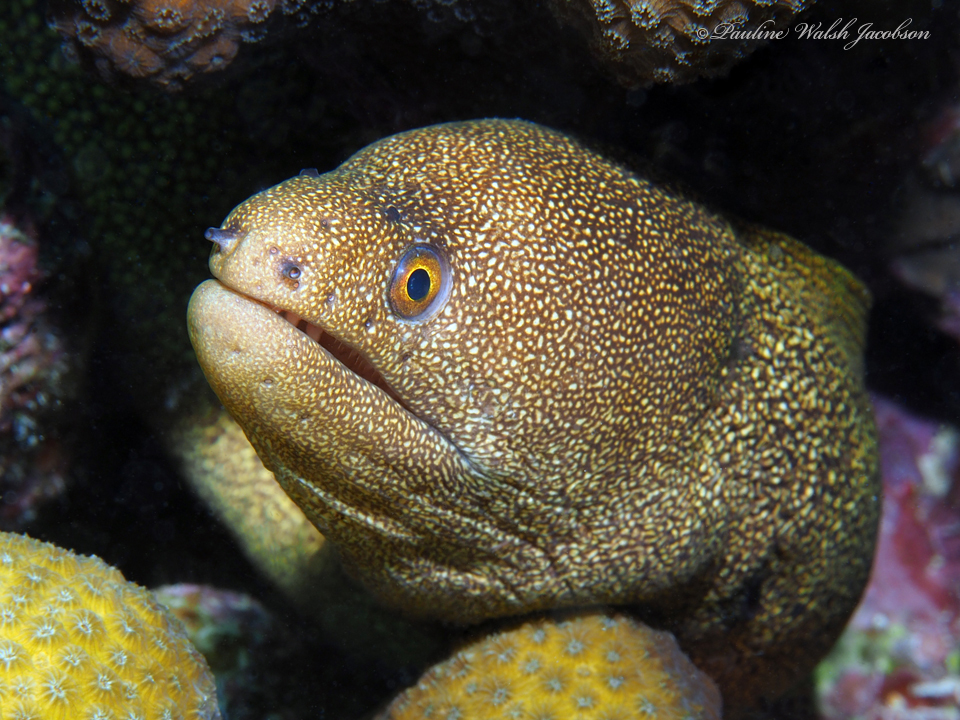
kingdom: Animalia
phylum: Chordata
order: Anguilliformes
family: Muraenidae
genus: Gymnothorax
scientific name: Gymnothorax miliaris
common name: Goldentail moray
